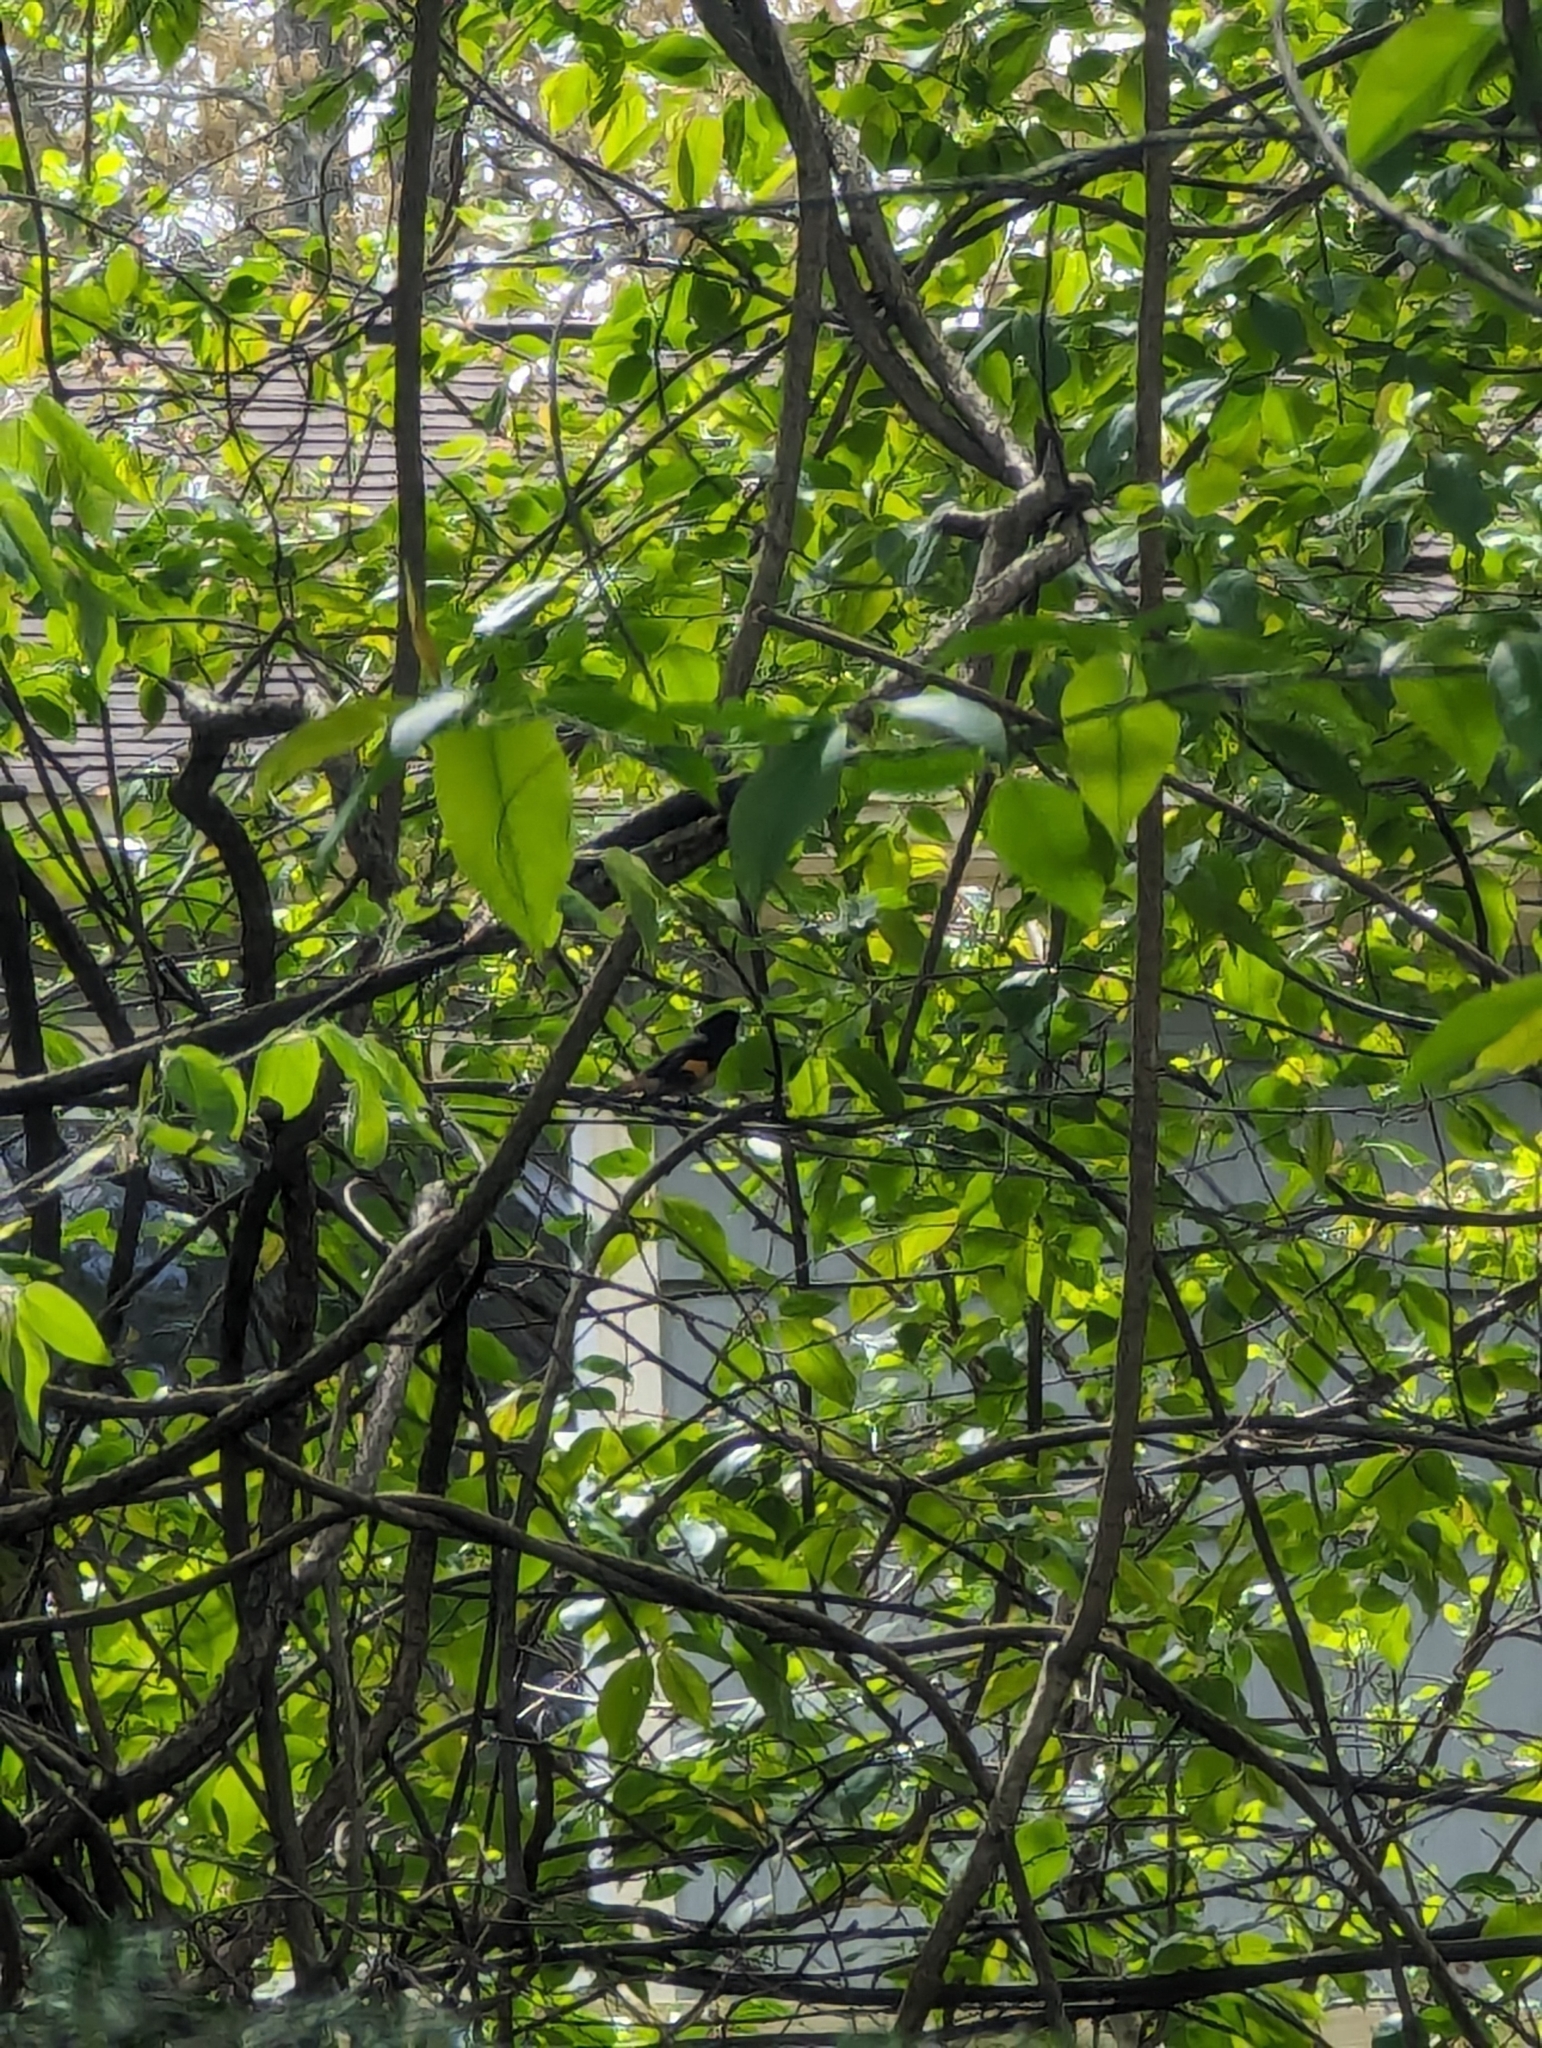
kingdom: Animalia
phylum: Chordata
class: Aves
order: Passeriformes
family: Parulidae
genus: Setophaga
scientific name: Setophaga ruticilla
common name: American redstart
